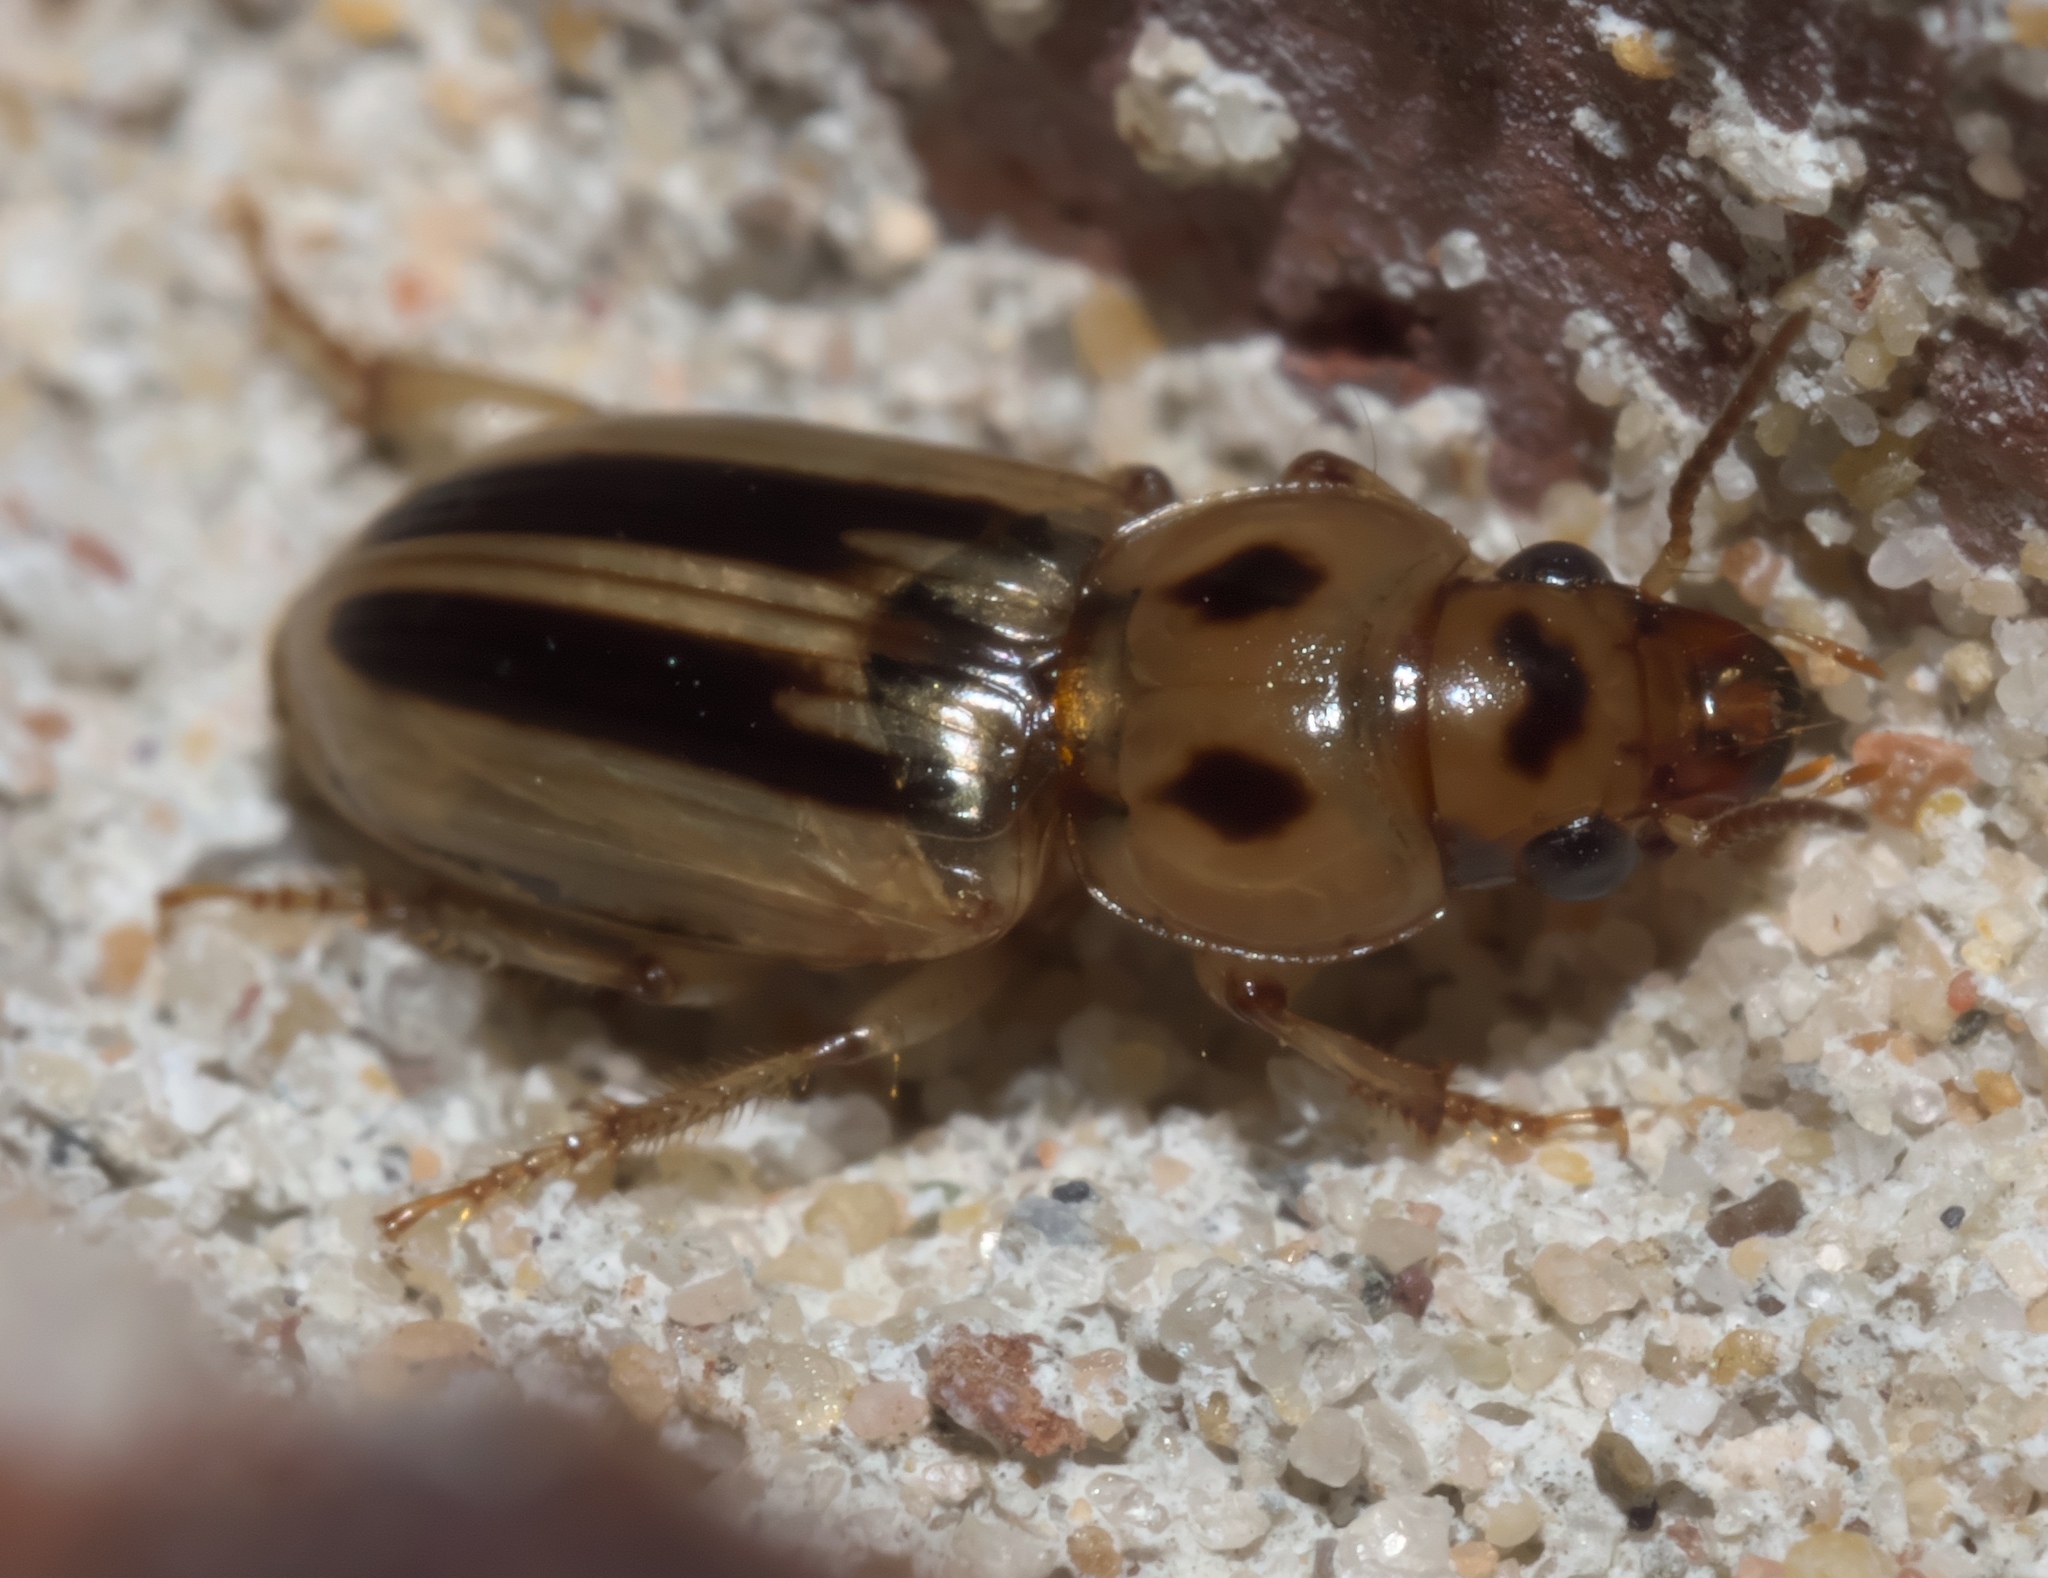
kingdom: Animalia
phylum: Arthropoda
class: Insecta
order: Coleoptera
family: Carabidae
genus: Stenolophus
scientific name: Stenolophus lineola
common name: Lined stenolophus
